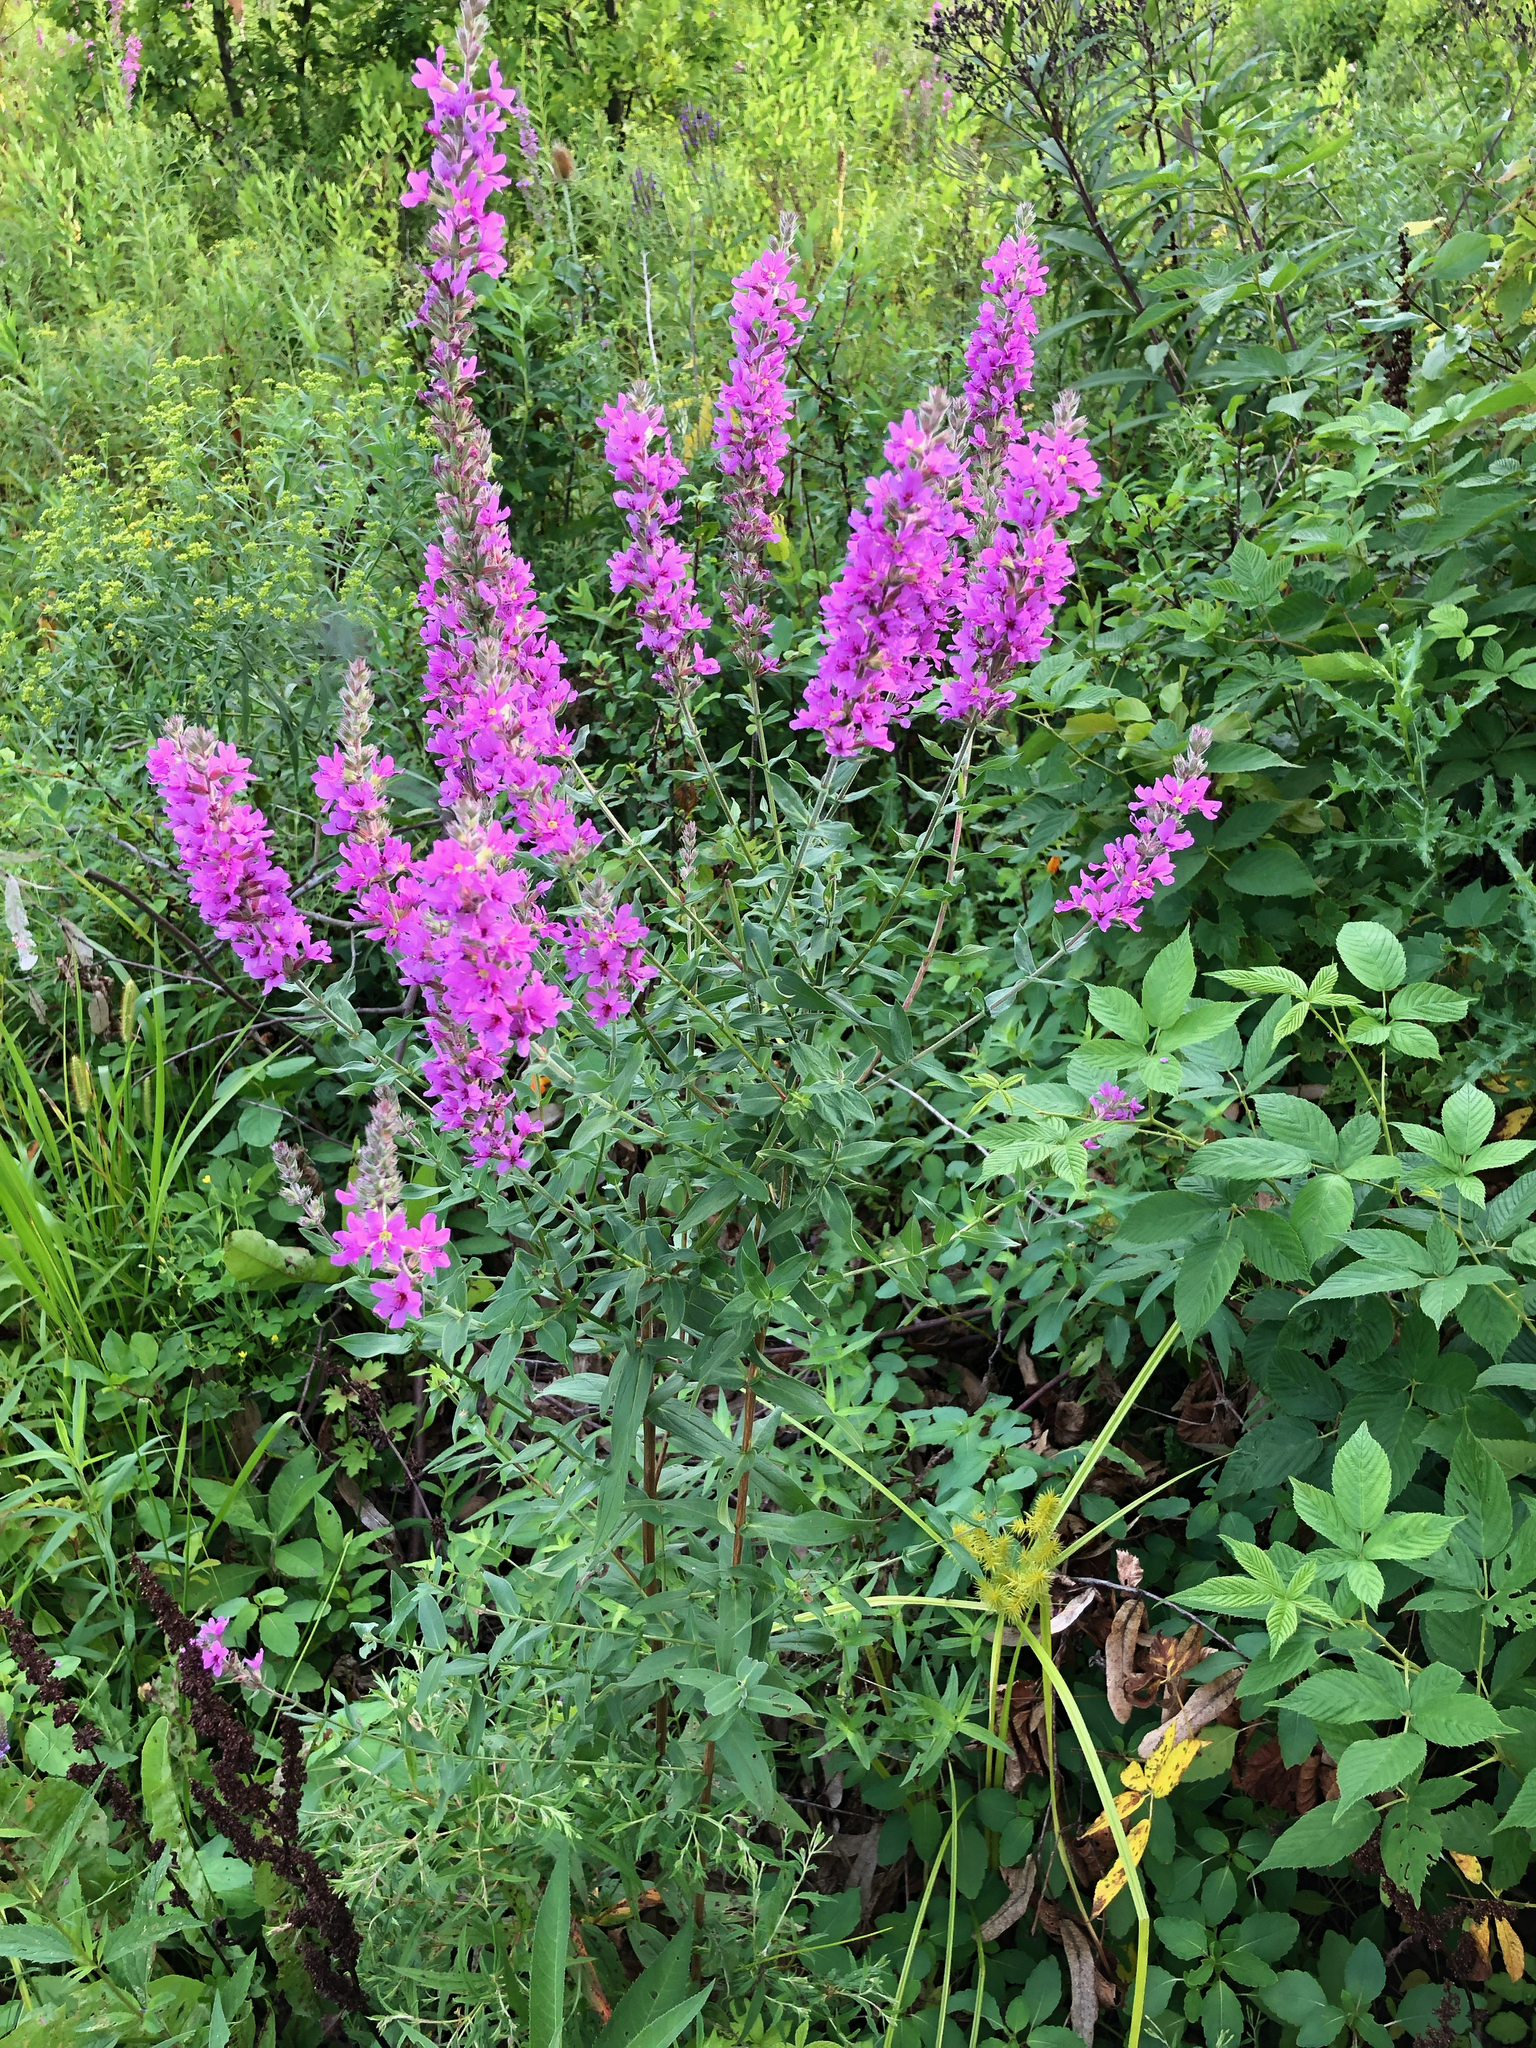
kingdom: Plantae
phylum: Tracheophyta
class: Magnoliopsida
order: Myrtales
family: Lythraceae
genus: Lythrum
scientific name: Lythrum salicaria
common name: Purple loosestrife
